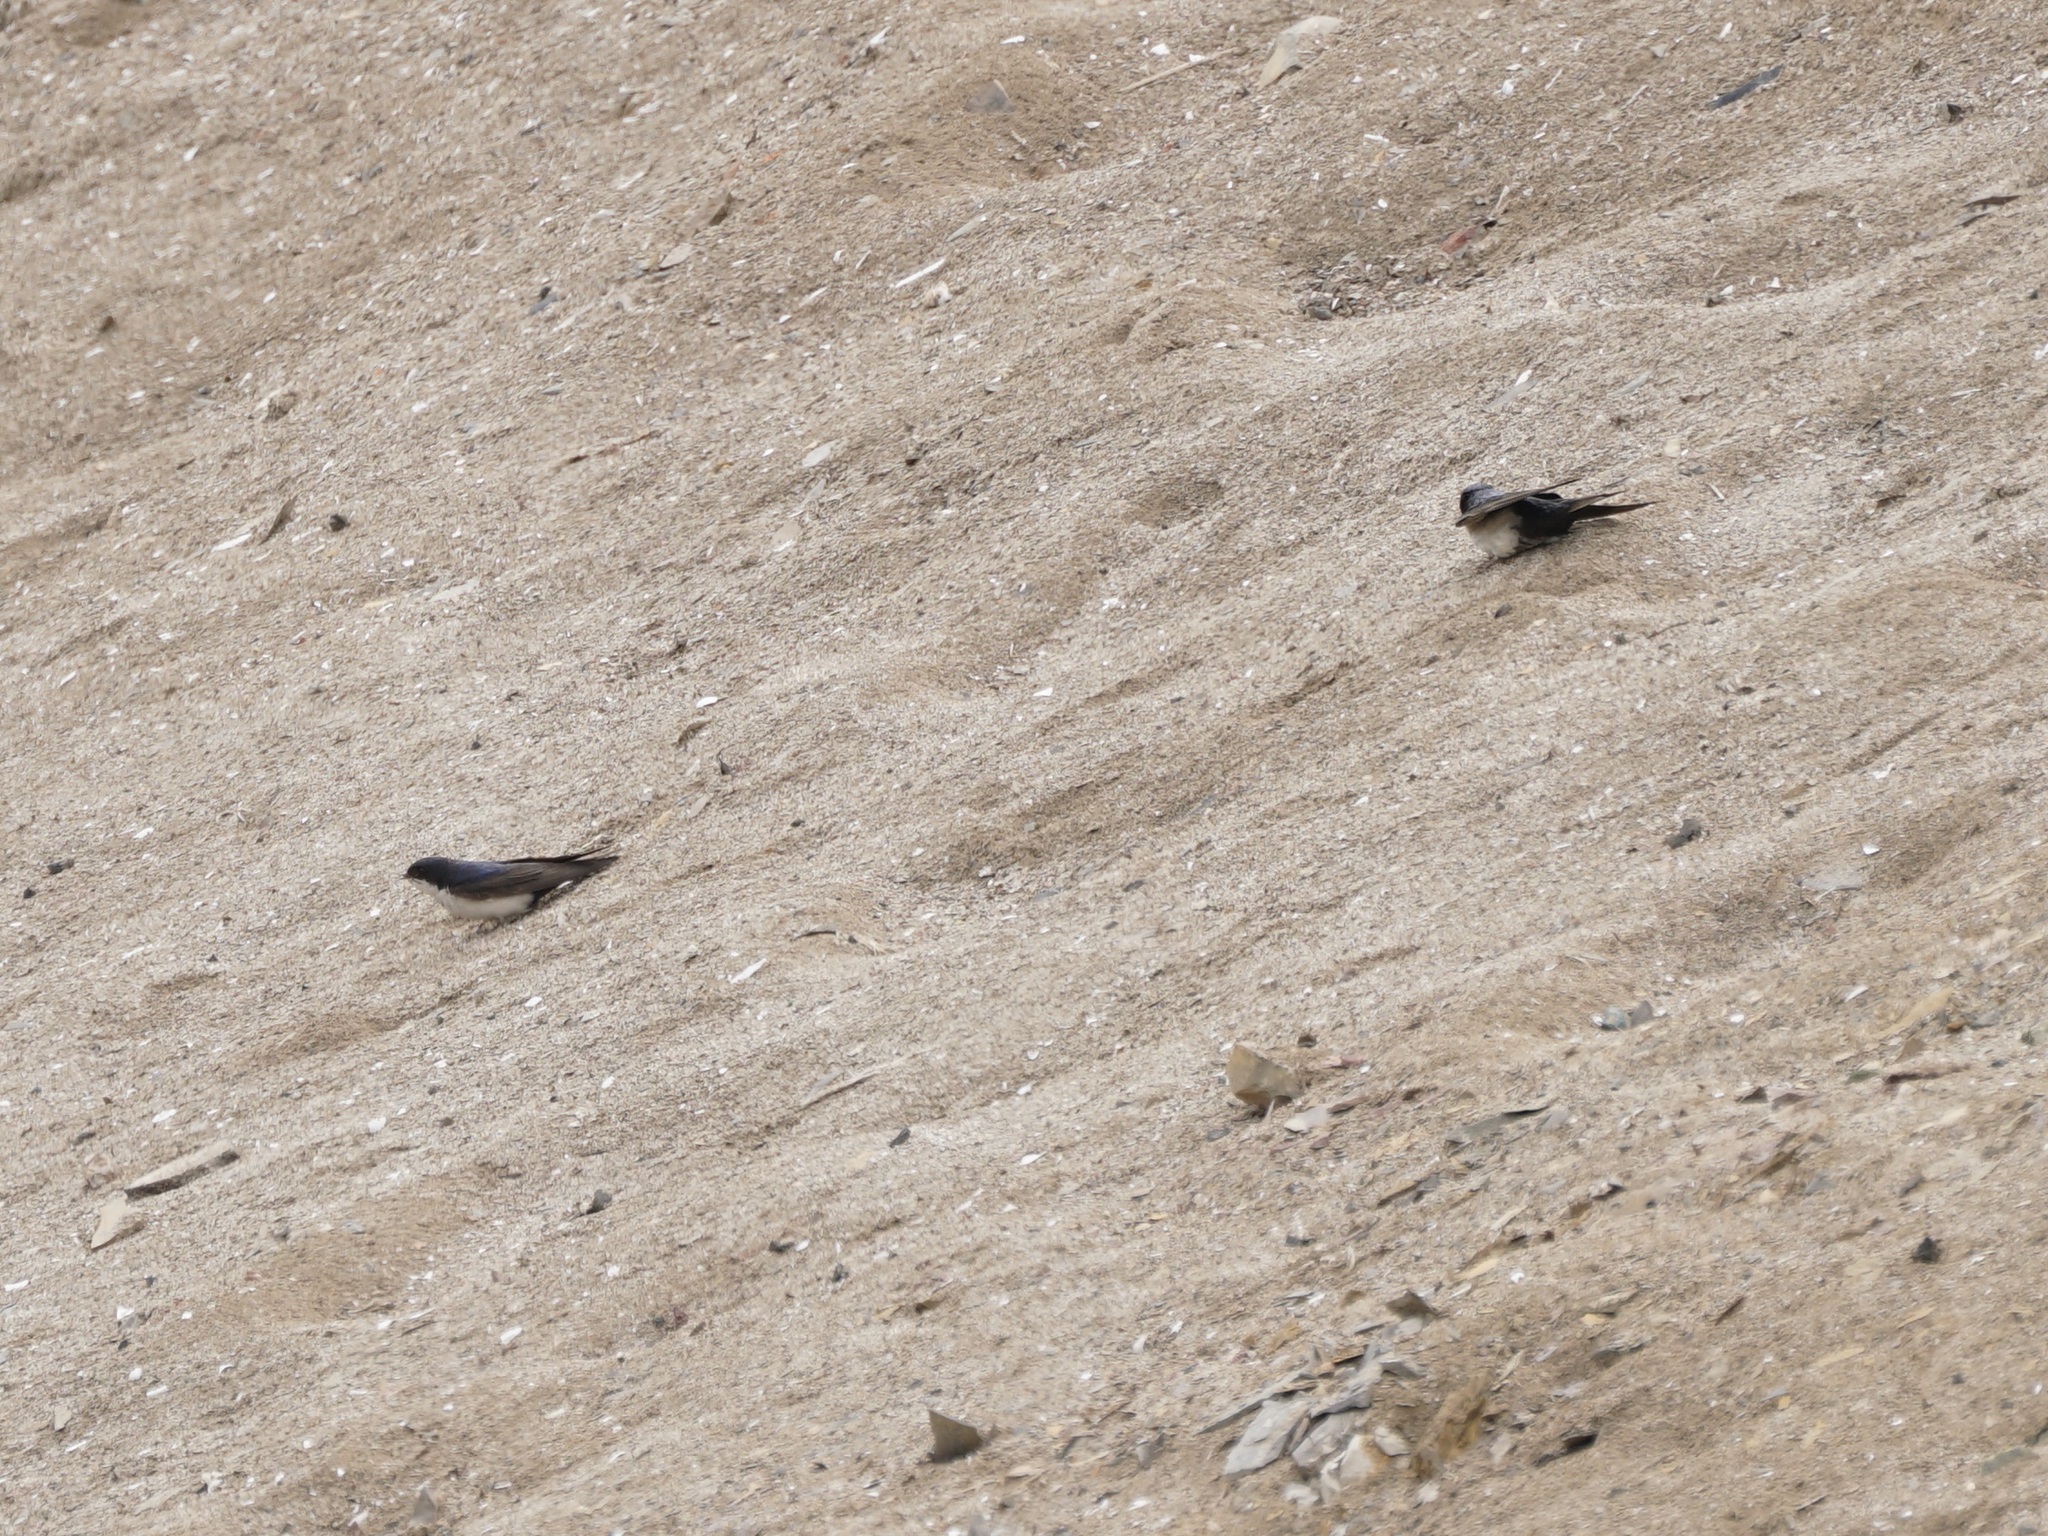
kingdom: Animalia
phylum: Chordata
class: Aves
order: Passeriformes
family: Hirundinidae
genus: Notiochelidon
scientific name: Notiochelidon cyanoleuca
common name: Blue-and-white swallow
